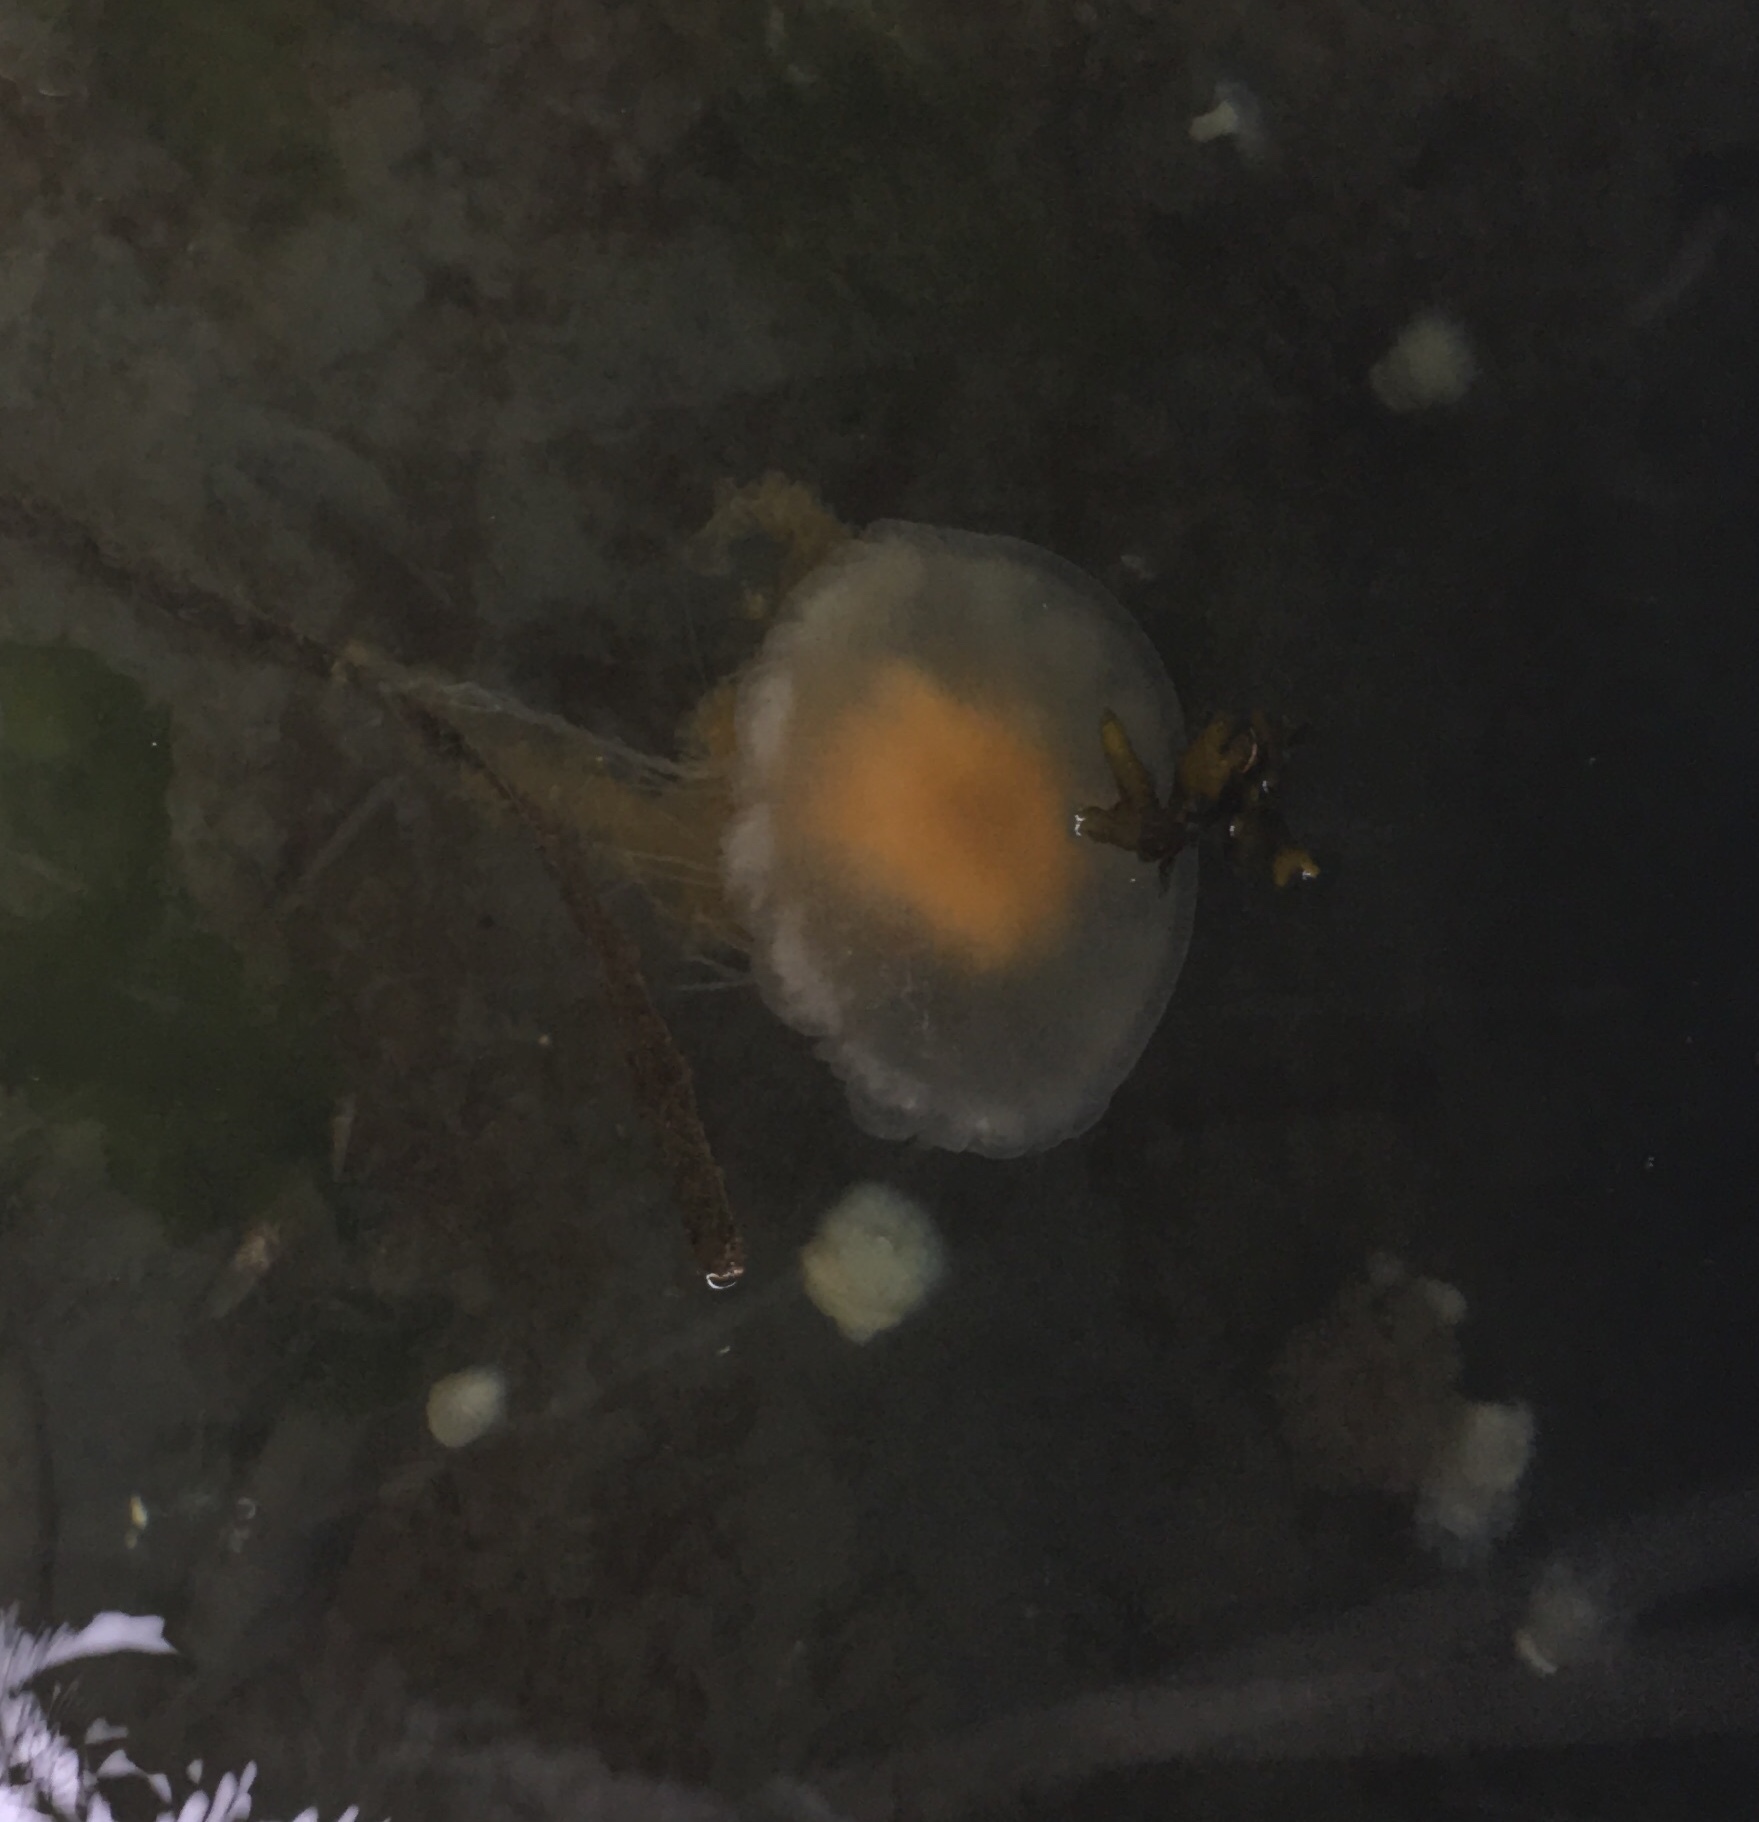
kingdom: Animalia
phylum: Cnidaria
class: Scyphozoa
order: Semaeostomeae
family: Phacellophoridae
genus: Phacellophora
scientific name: Phacellophora camtschatica
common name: Fried-egg jellyfish
